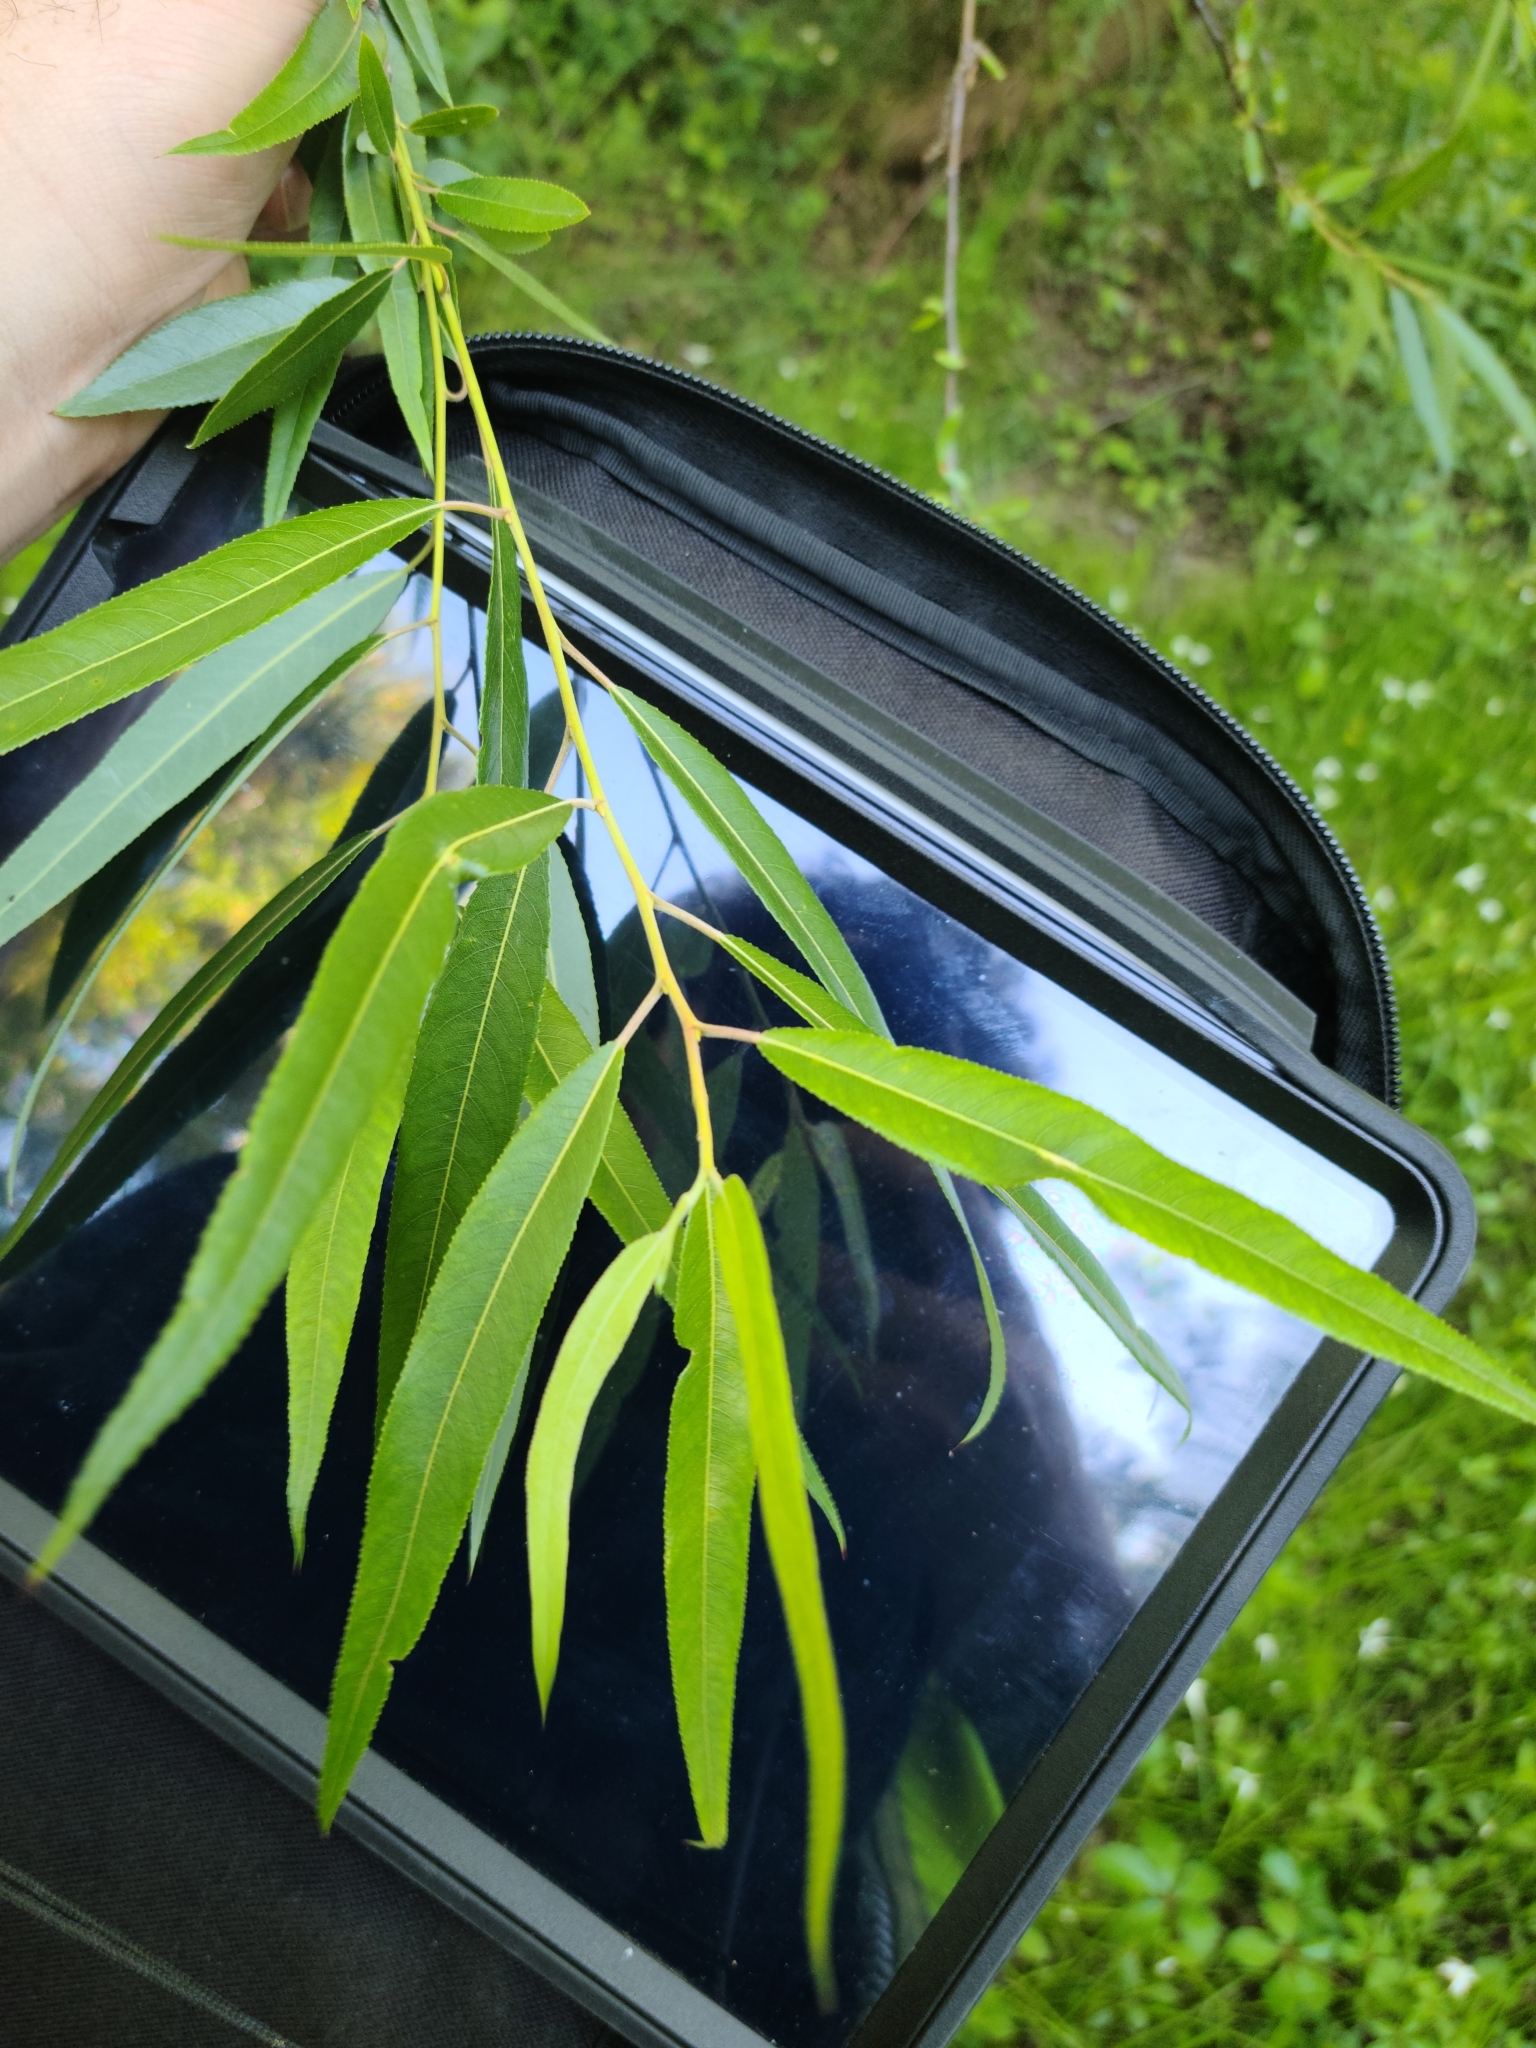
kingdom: Plantae
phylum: Tracheophyta
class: Magnoliopsida
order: Malpighiales
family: Salicaceae
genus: Salix
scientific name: Salix caroliniana
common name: Carolina willow
